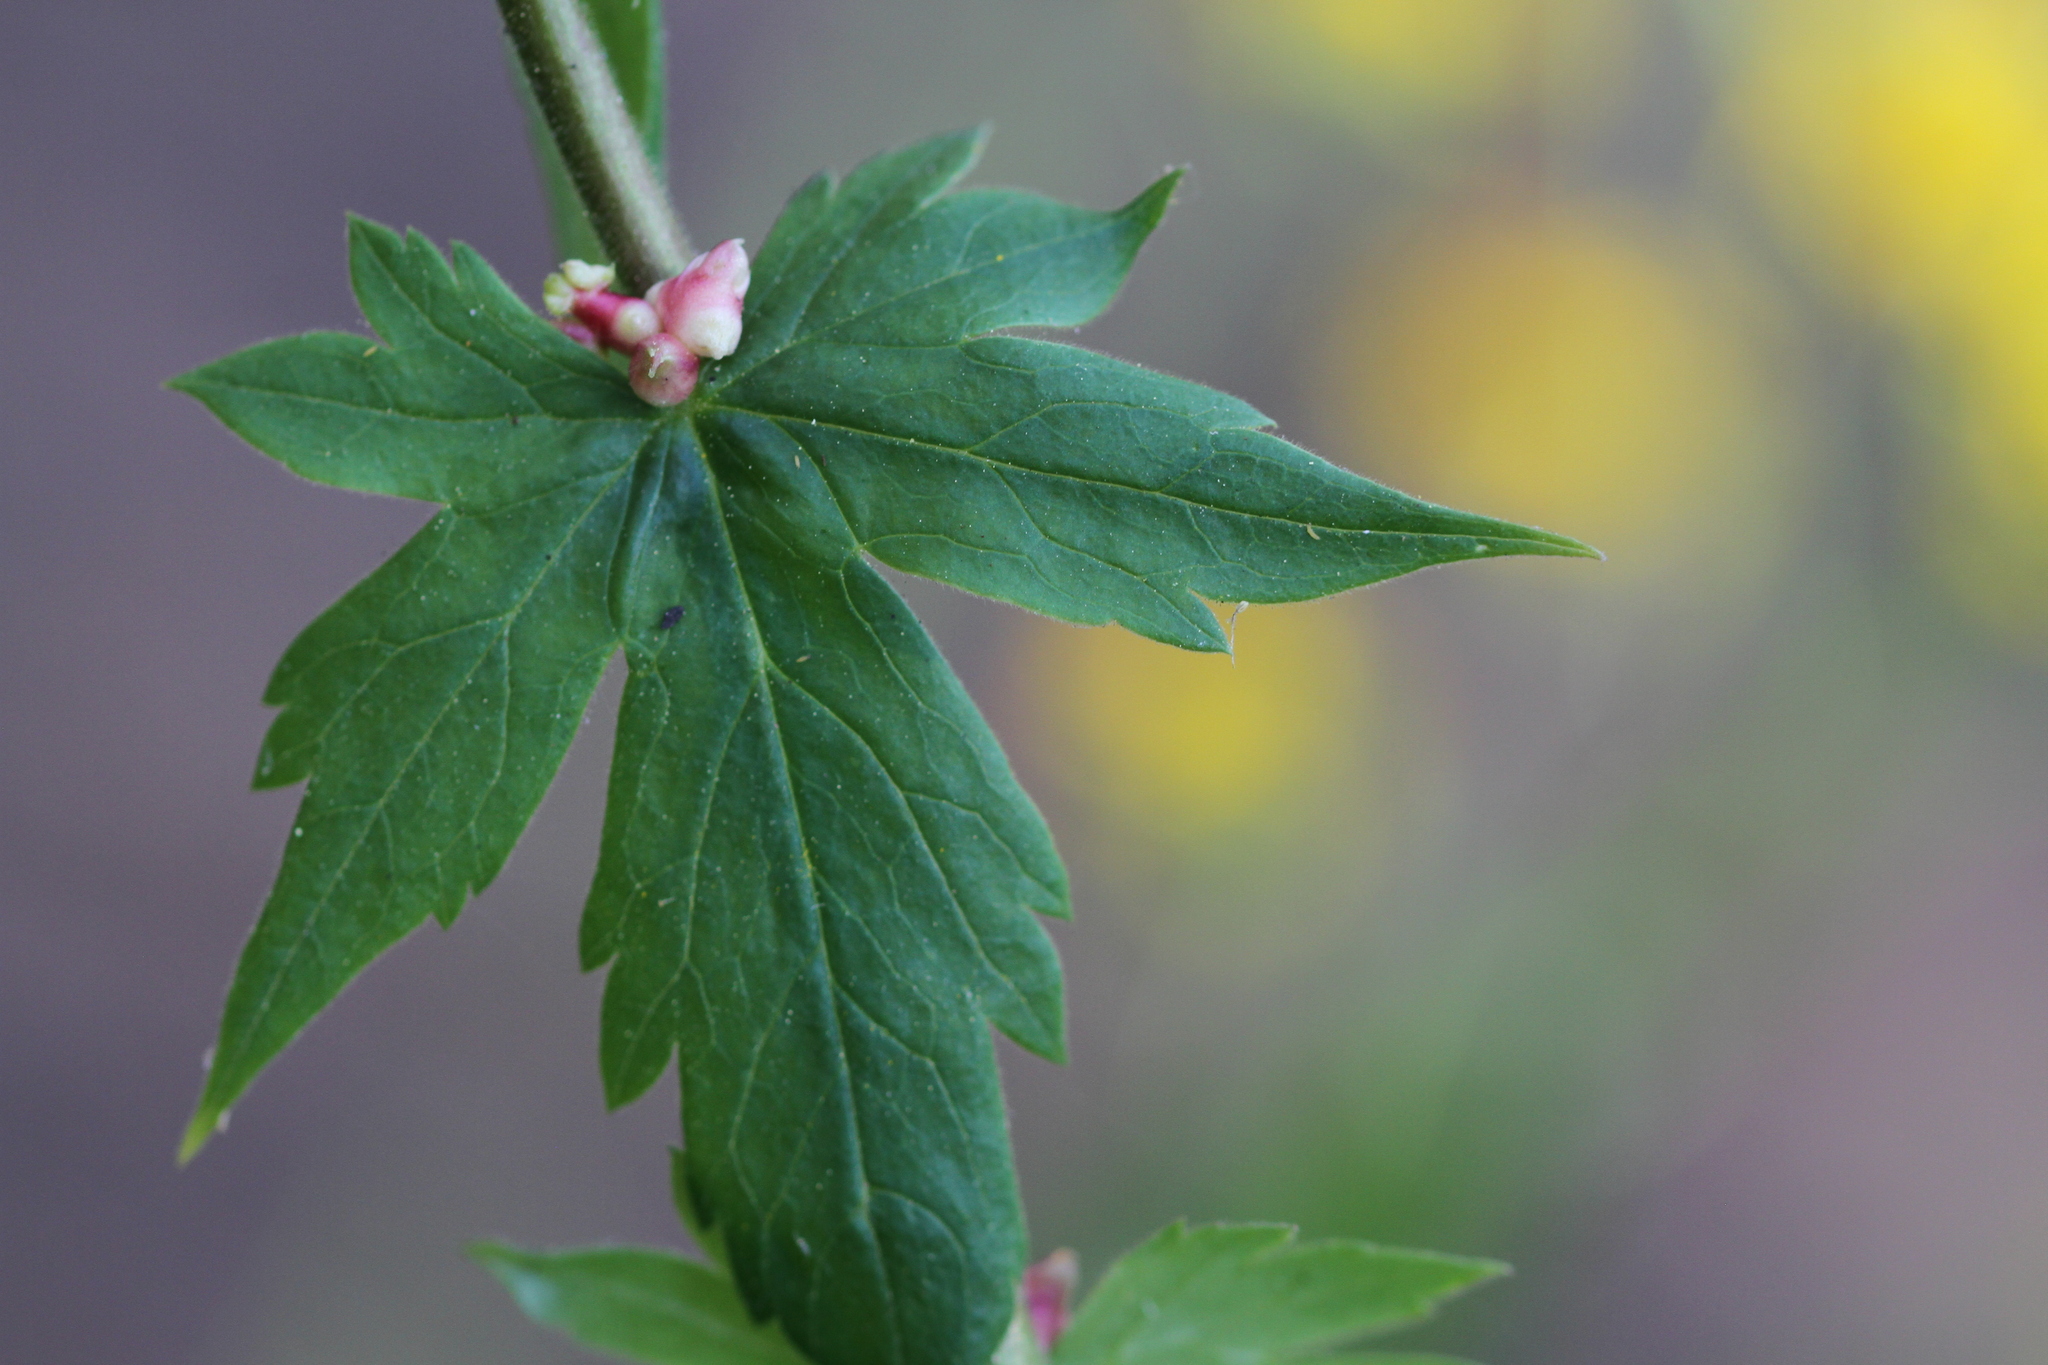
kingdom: Plantae
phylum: Tracheophyta
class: Magnoliopsida
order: Ranunculales
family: Ranunculaceae
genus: Aconitum
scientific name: Aconitum columbianum
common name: Columbia aconite
